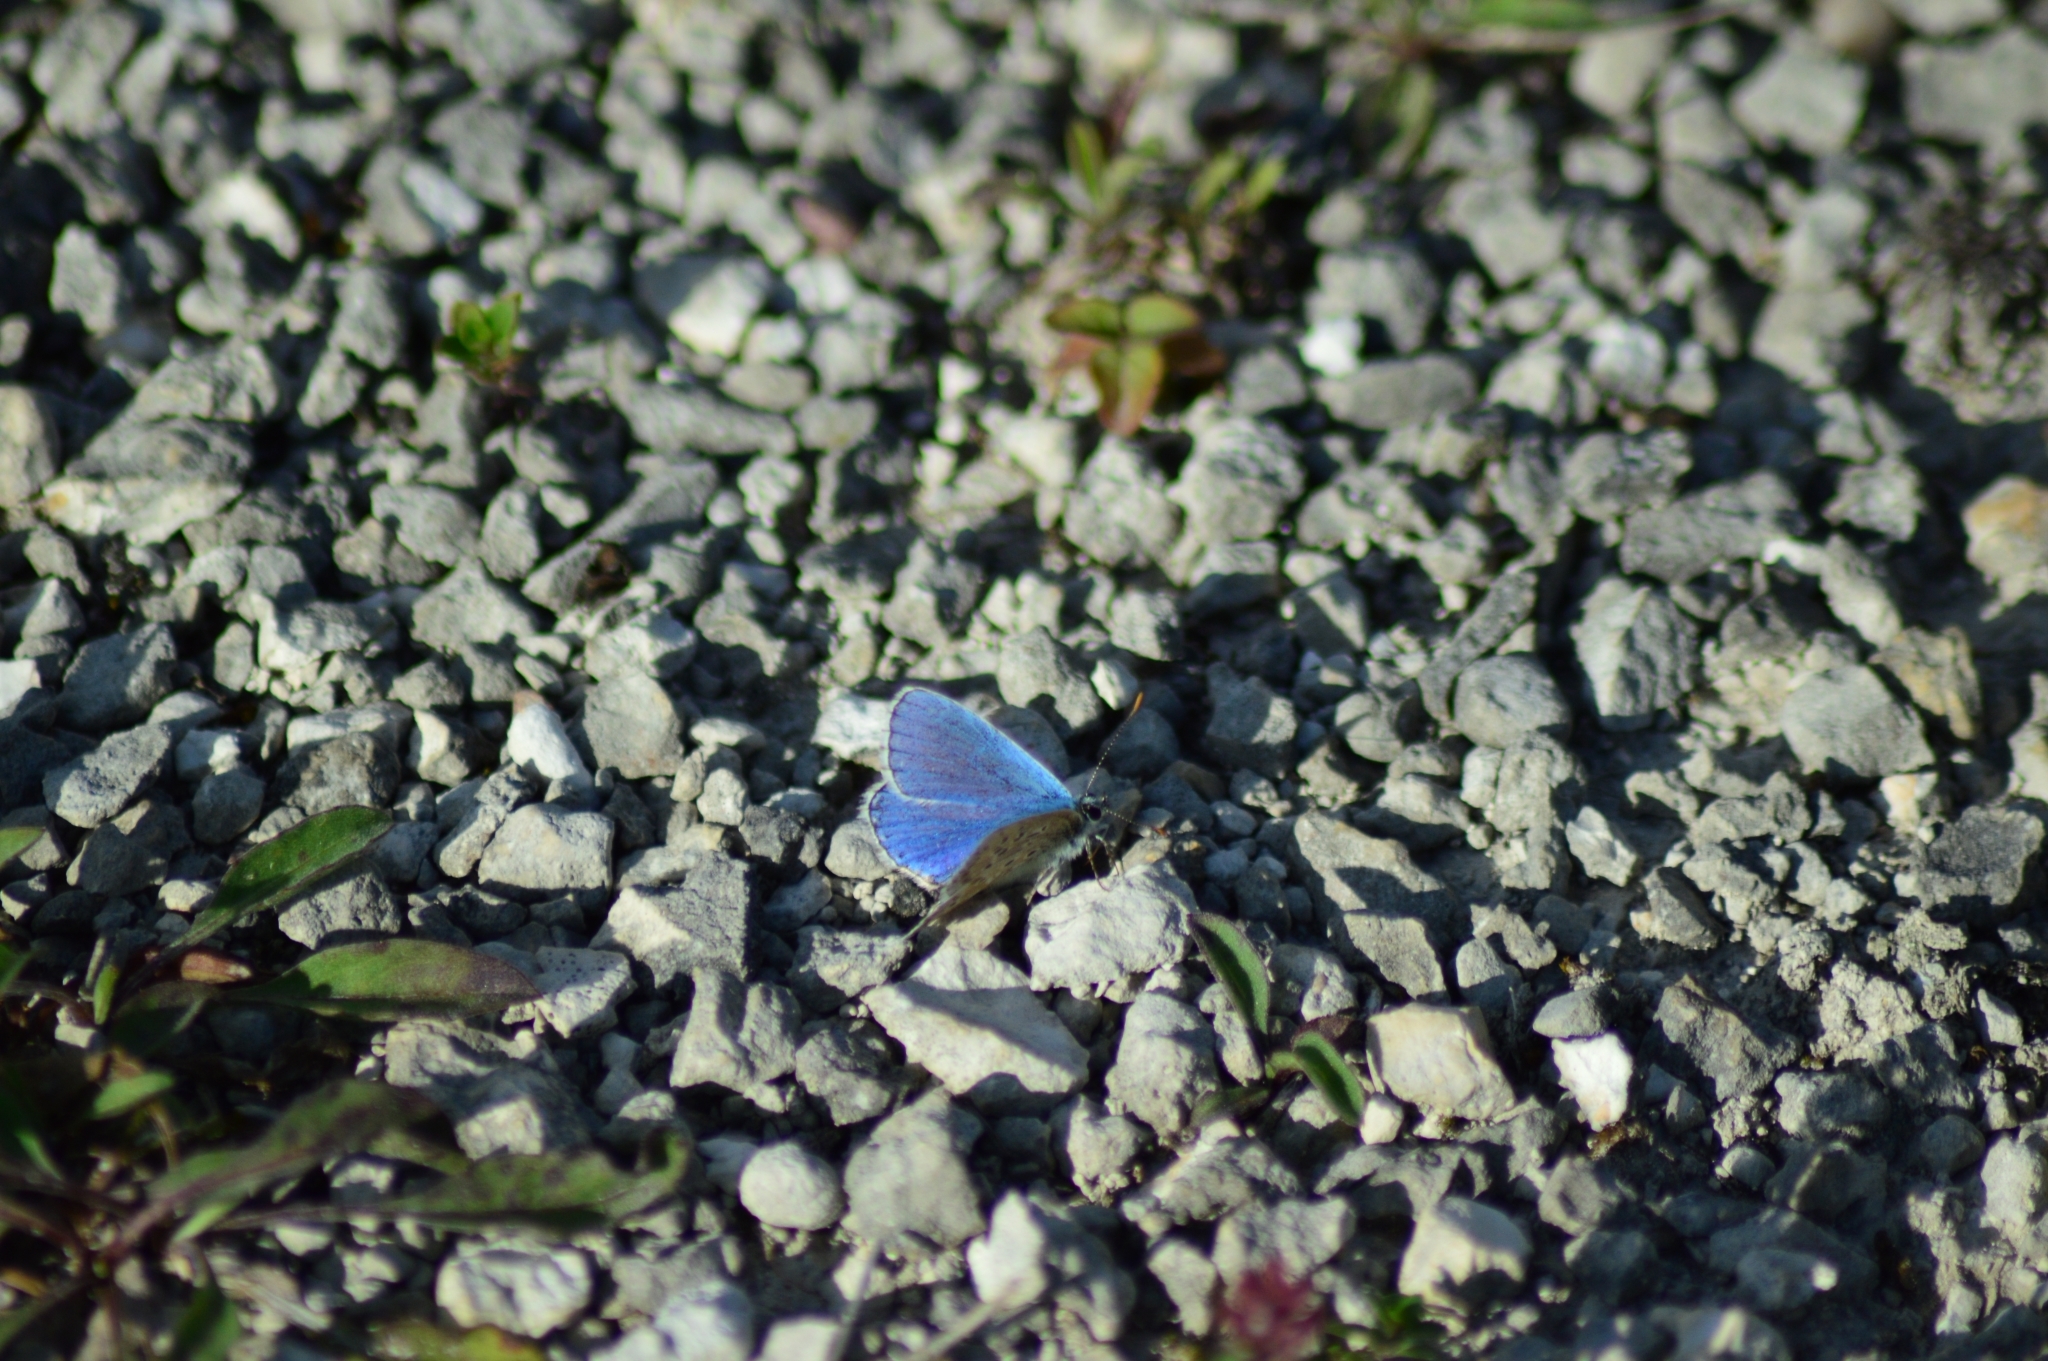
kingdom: Animalia
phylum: Arthropoda
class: Insecta
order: Lepidoptera
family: Lycaenidae
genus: Lysandra
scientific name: Lysandra bellargus
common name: Adonis blue
